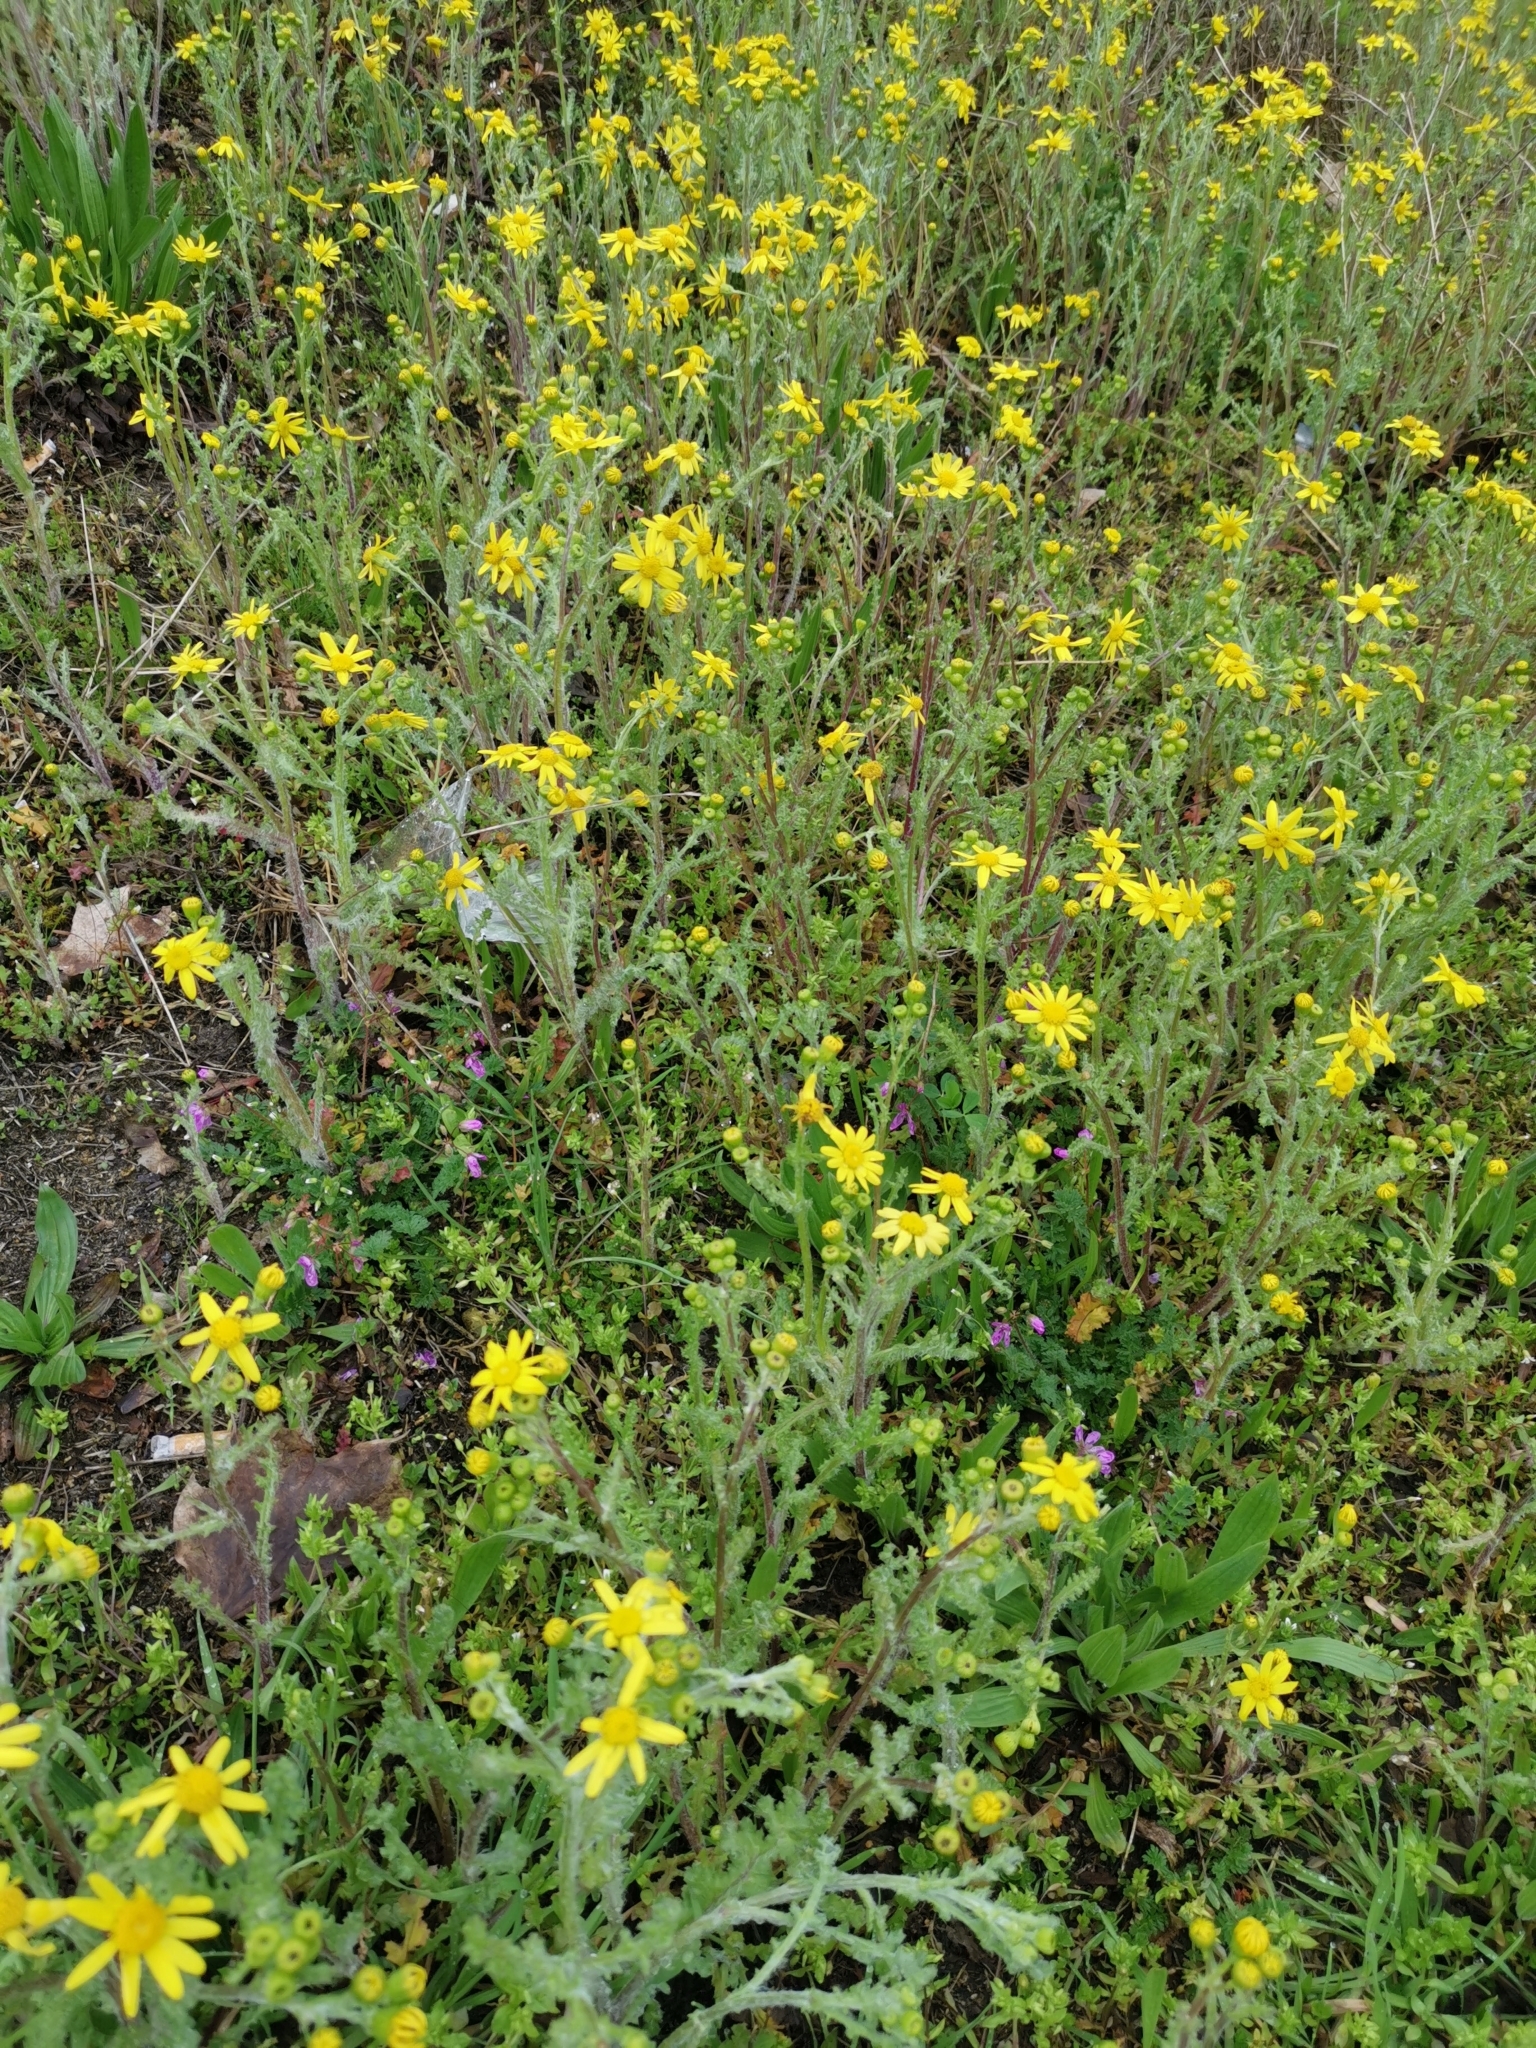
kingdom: Plantae
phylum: Tracheophyta
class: Magnoliopsida
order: Asterales
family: Asteraceae
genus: Senecio
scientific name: Senecio vernalis
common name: Eastern groundsel
